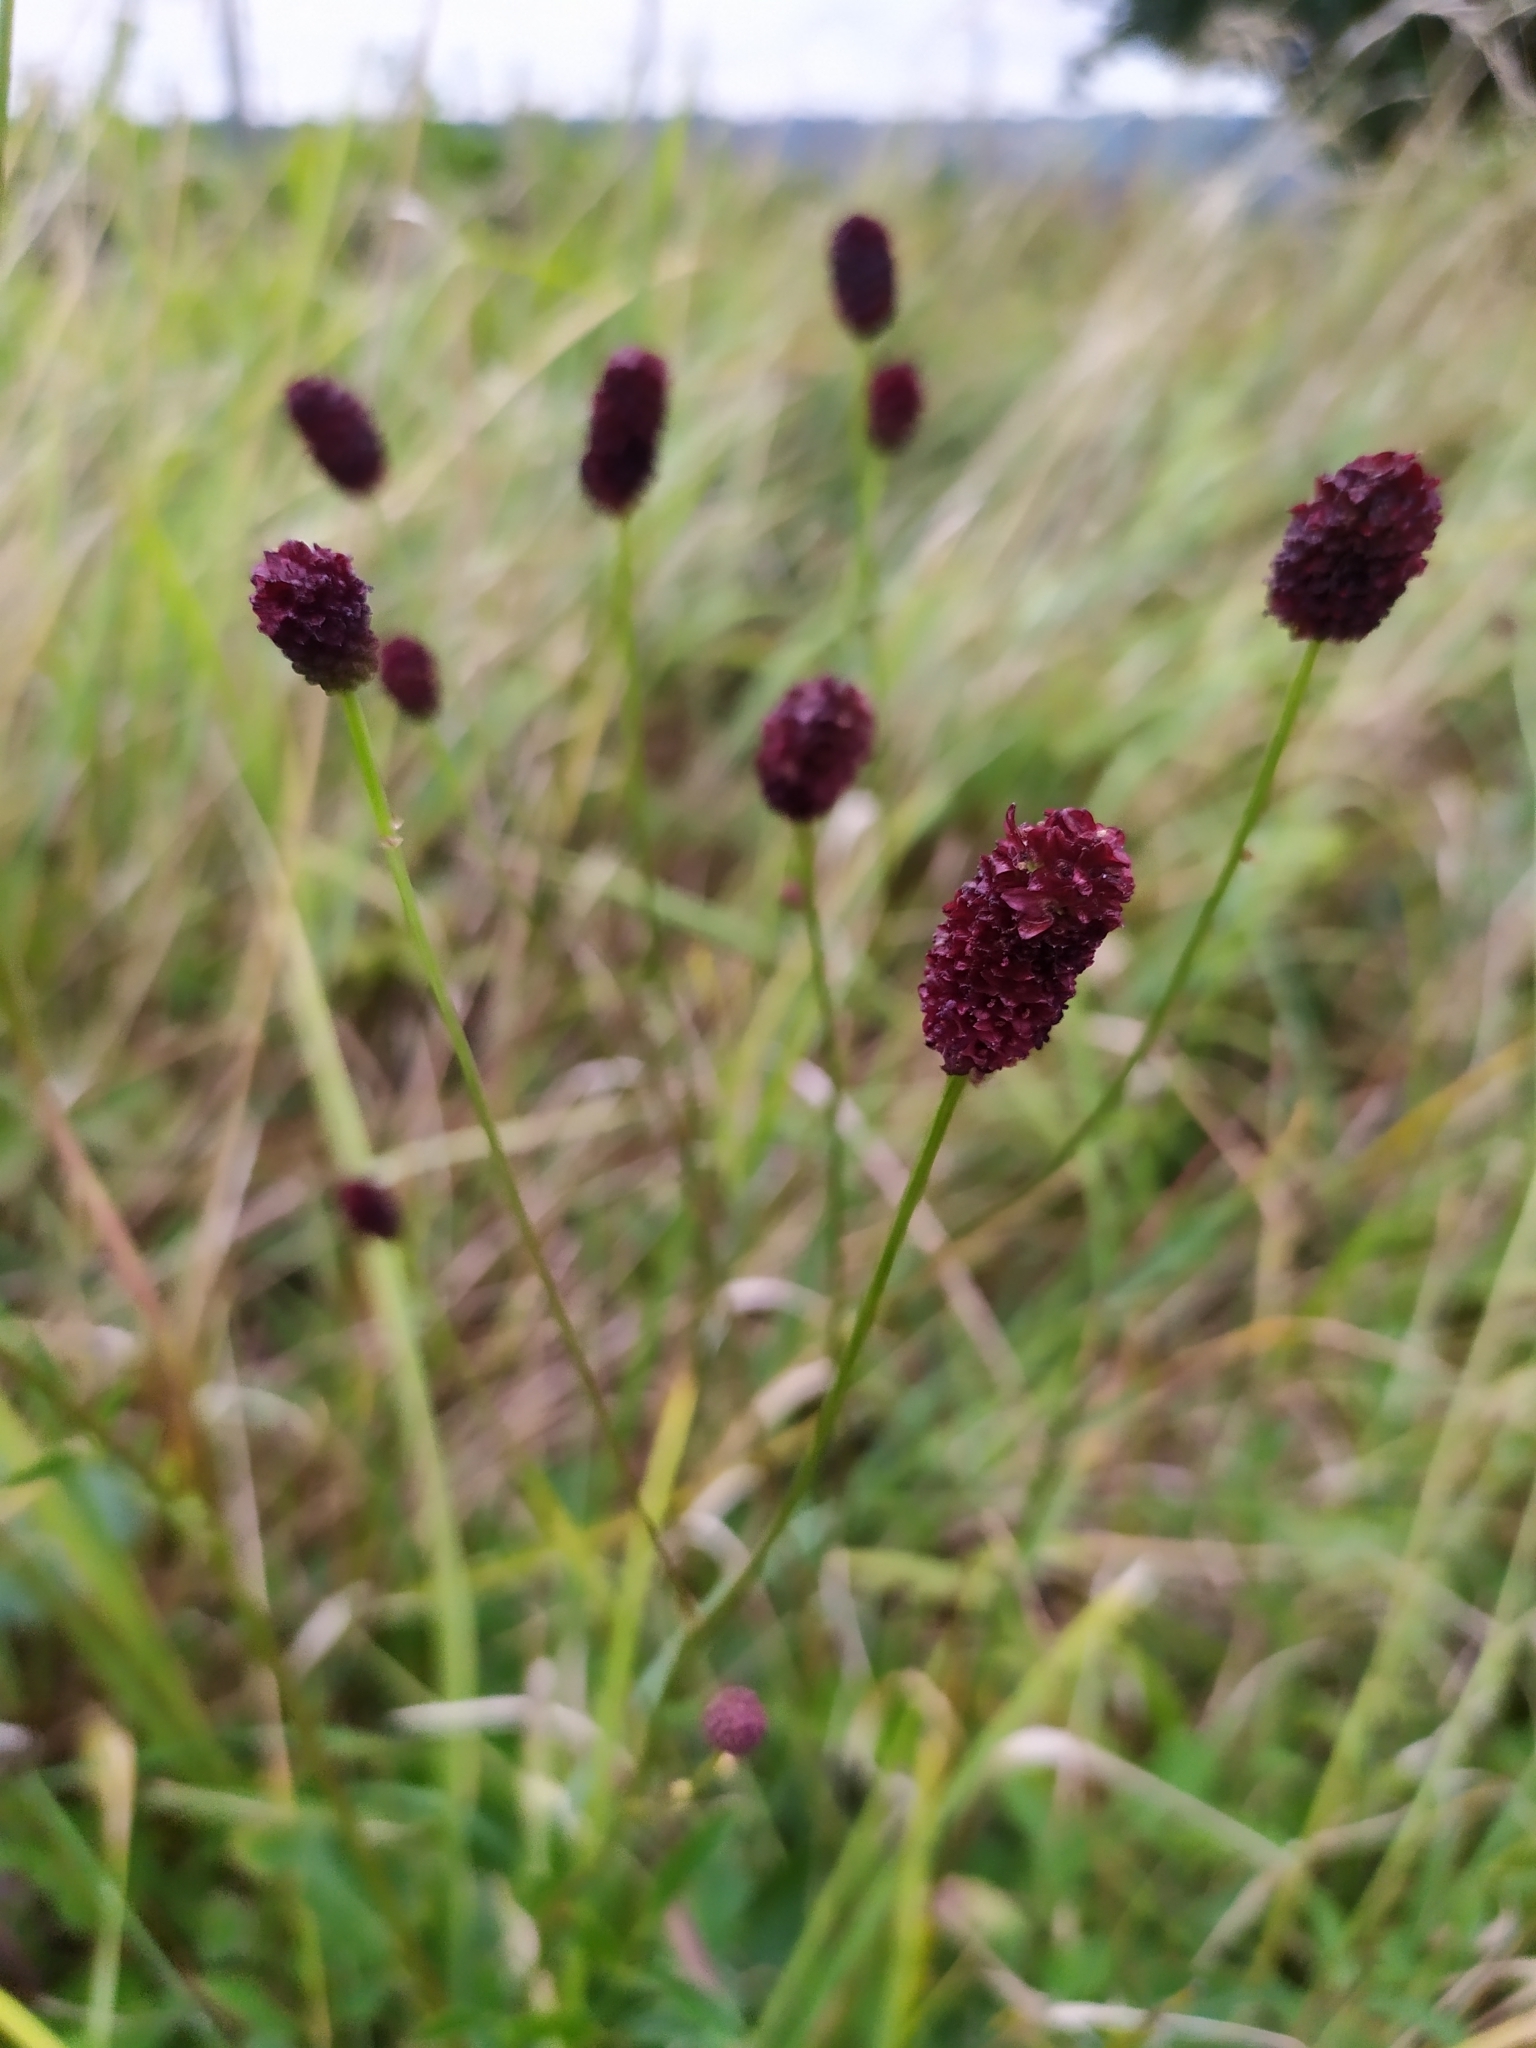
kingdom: Plantae
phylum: Tracheophyta
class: Magnoliopsida
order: Rosales
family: Rosaceae
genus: Sanguisorba
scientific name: Sanguisorba officinalis
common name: Great burnet
